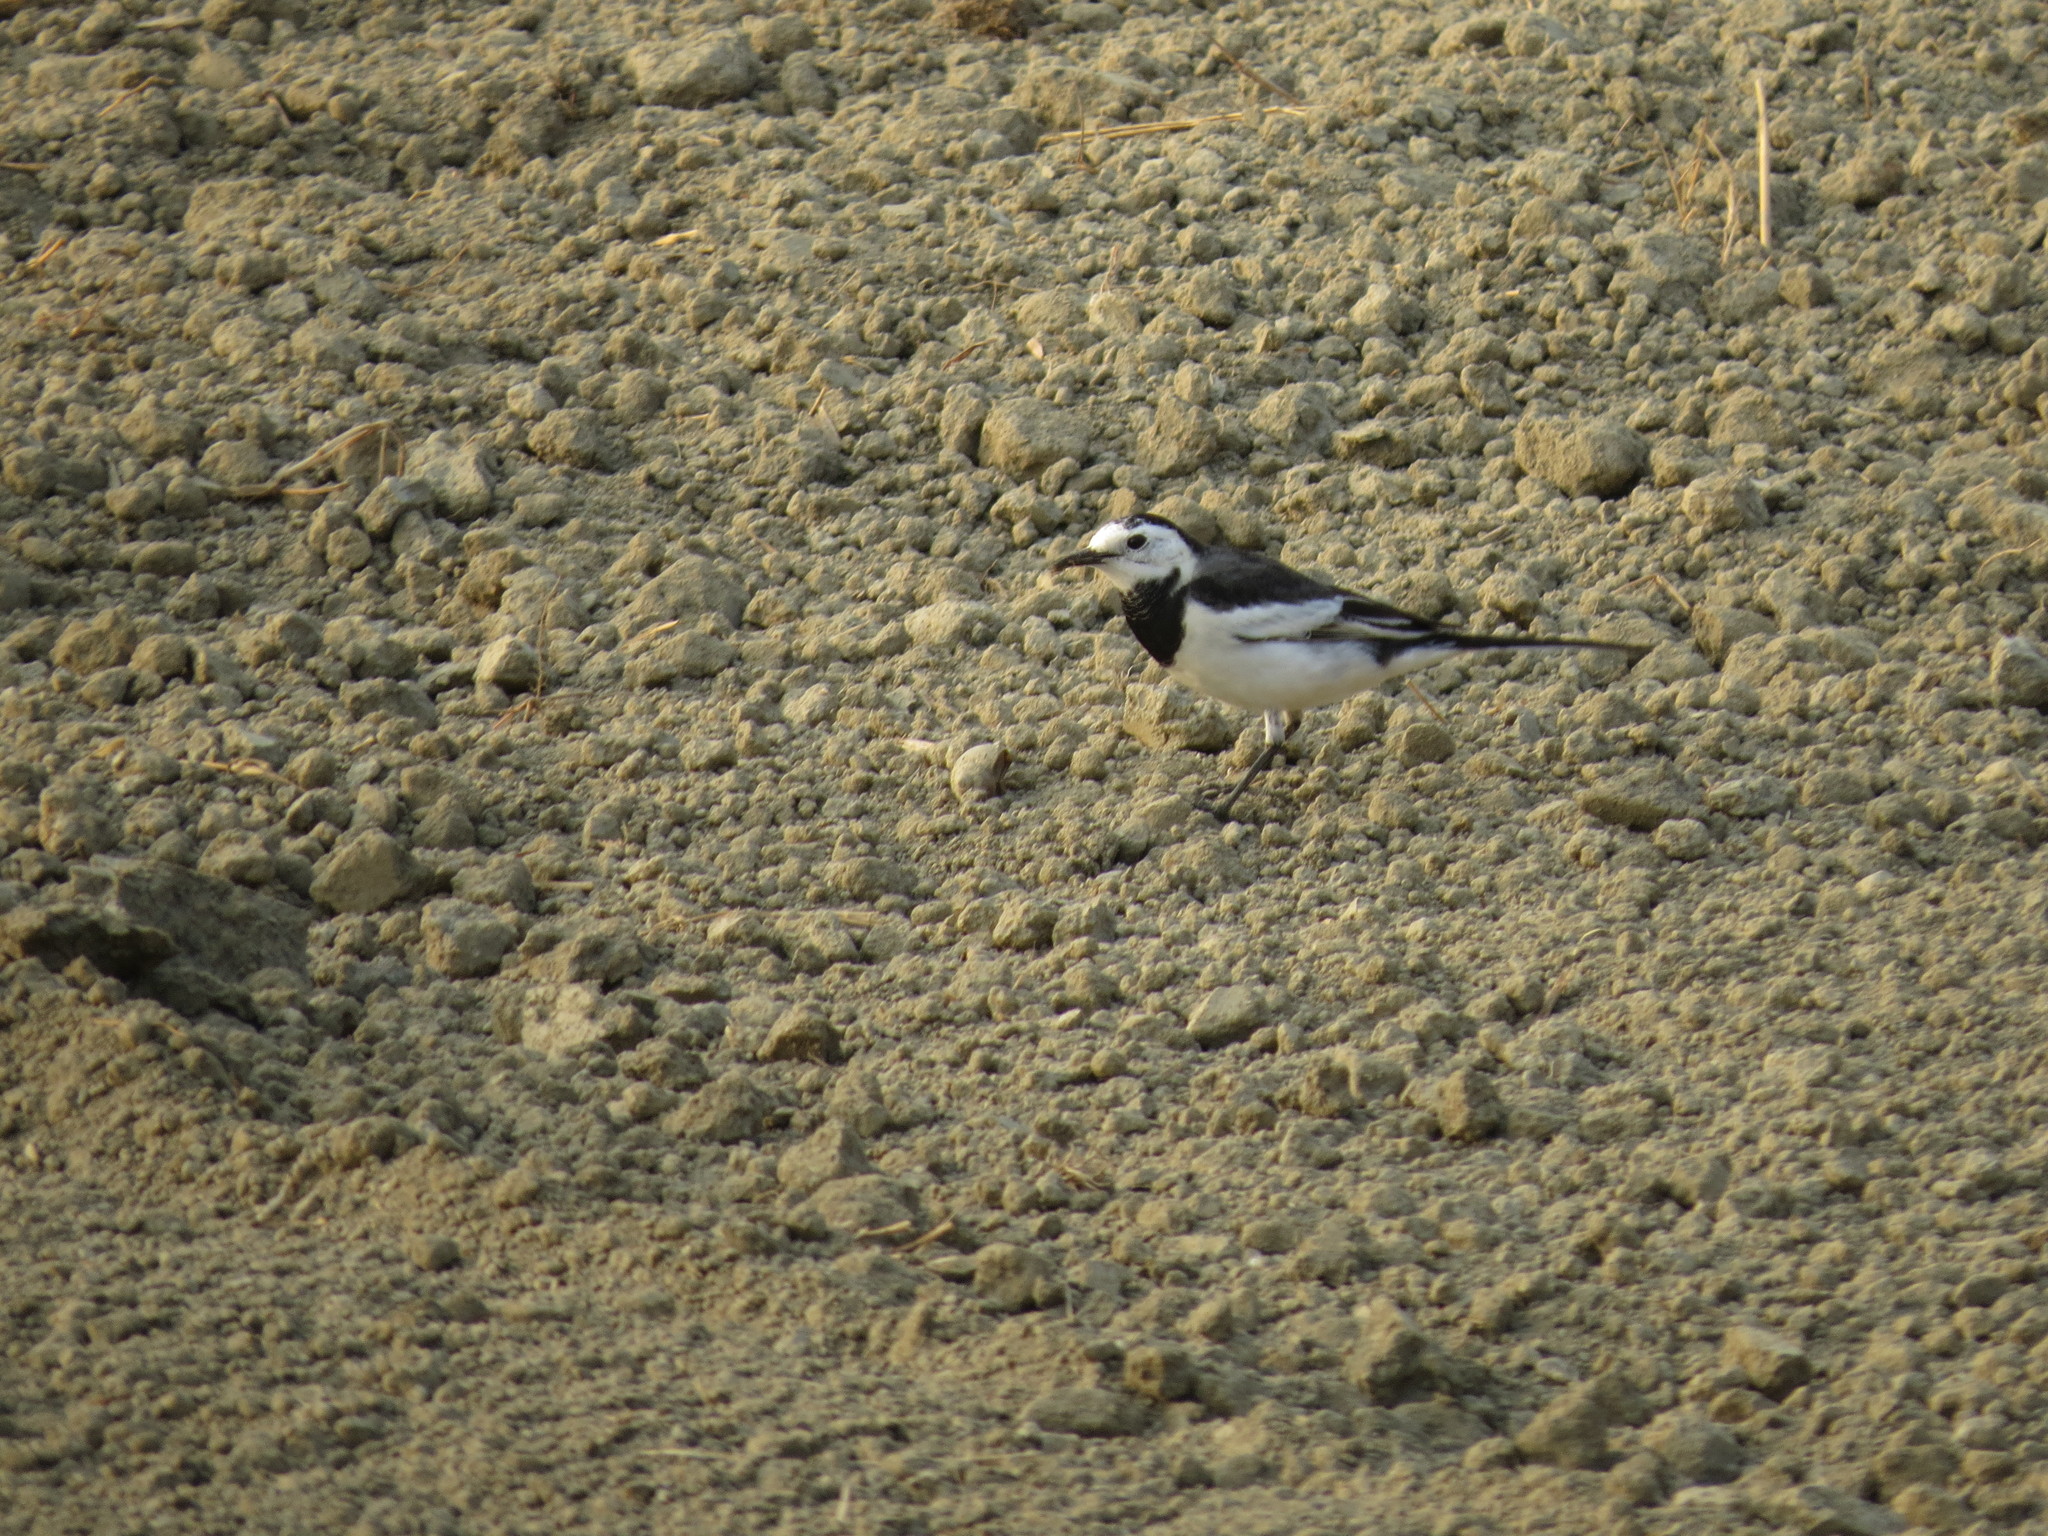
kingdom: Animalia
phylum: Chordata
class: Aves
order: Passeriformes
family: Motacillidae
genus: Motacilla
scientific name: Motacilla alba
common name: White wagtail
